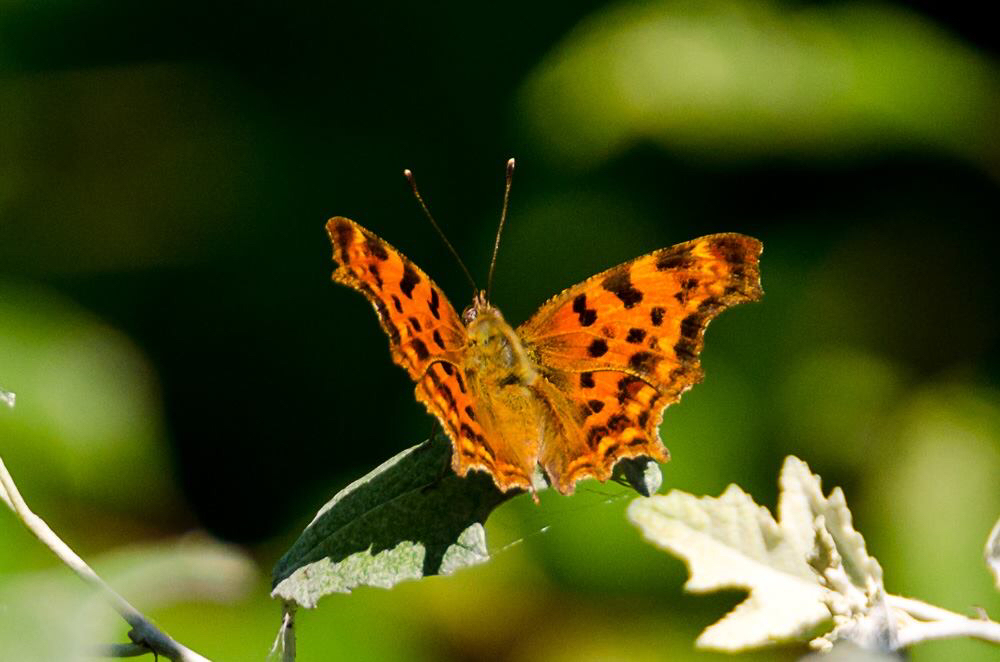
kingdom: Animalia
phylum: Arthropoda
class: Insecta
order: Lepidoptera
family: Nymphalidae
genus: Polygonia
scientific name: Polygonia c-album
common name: Comma
